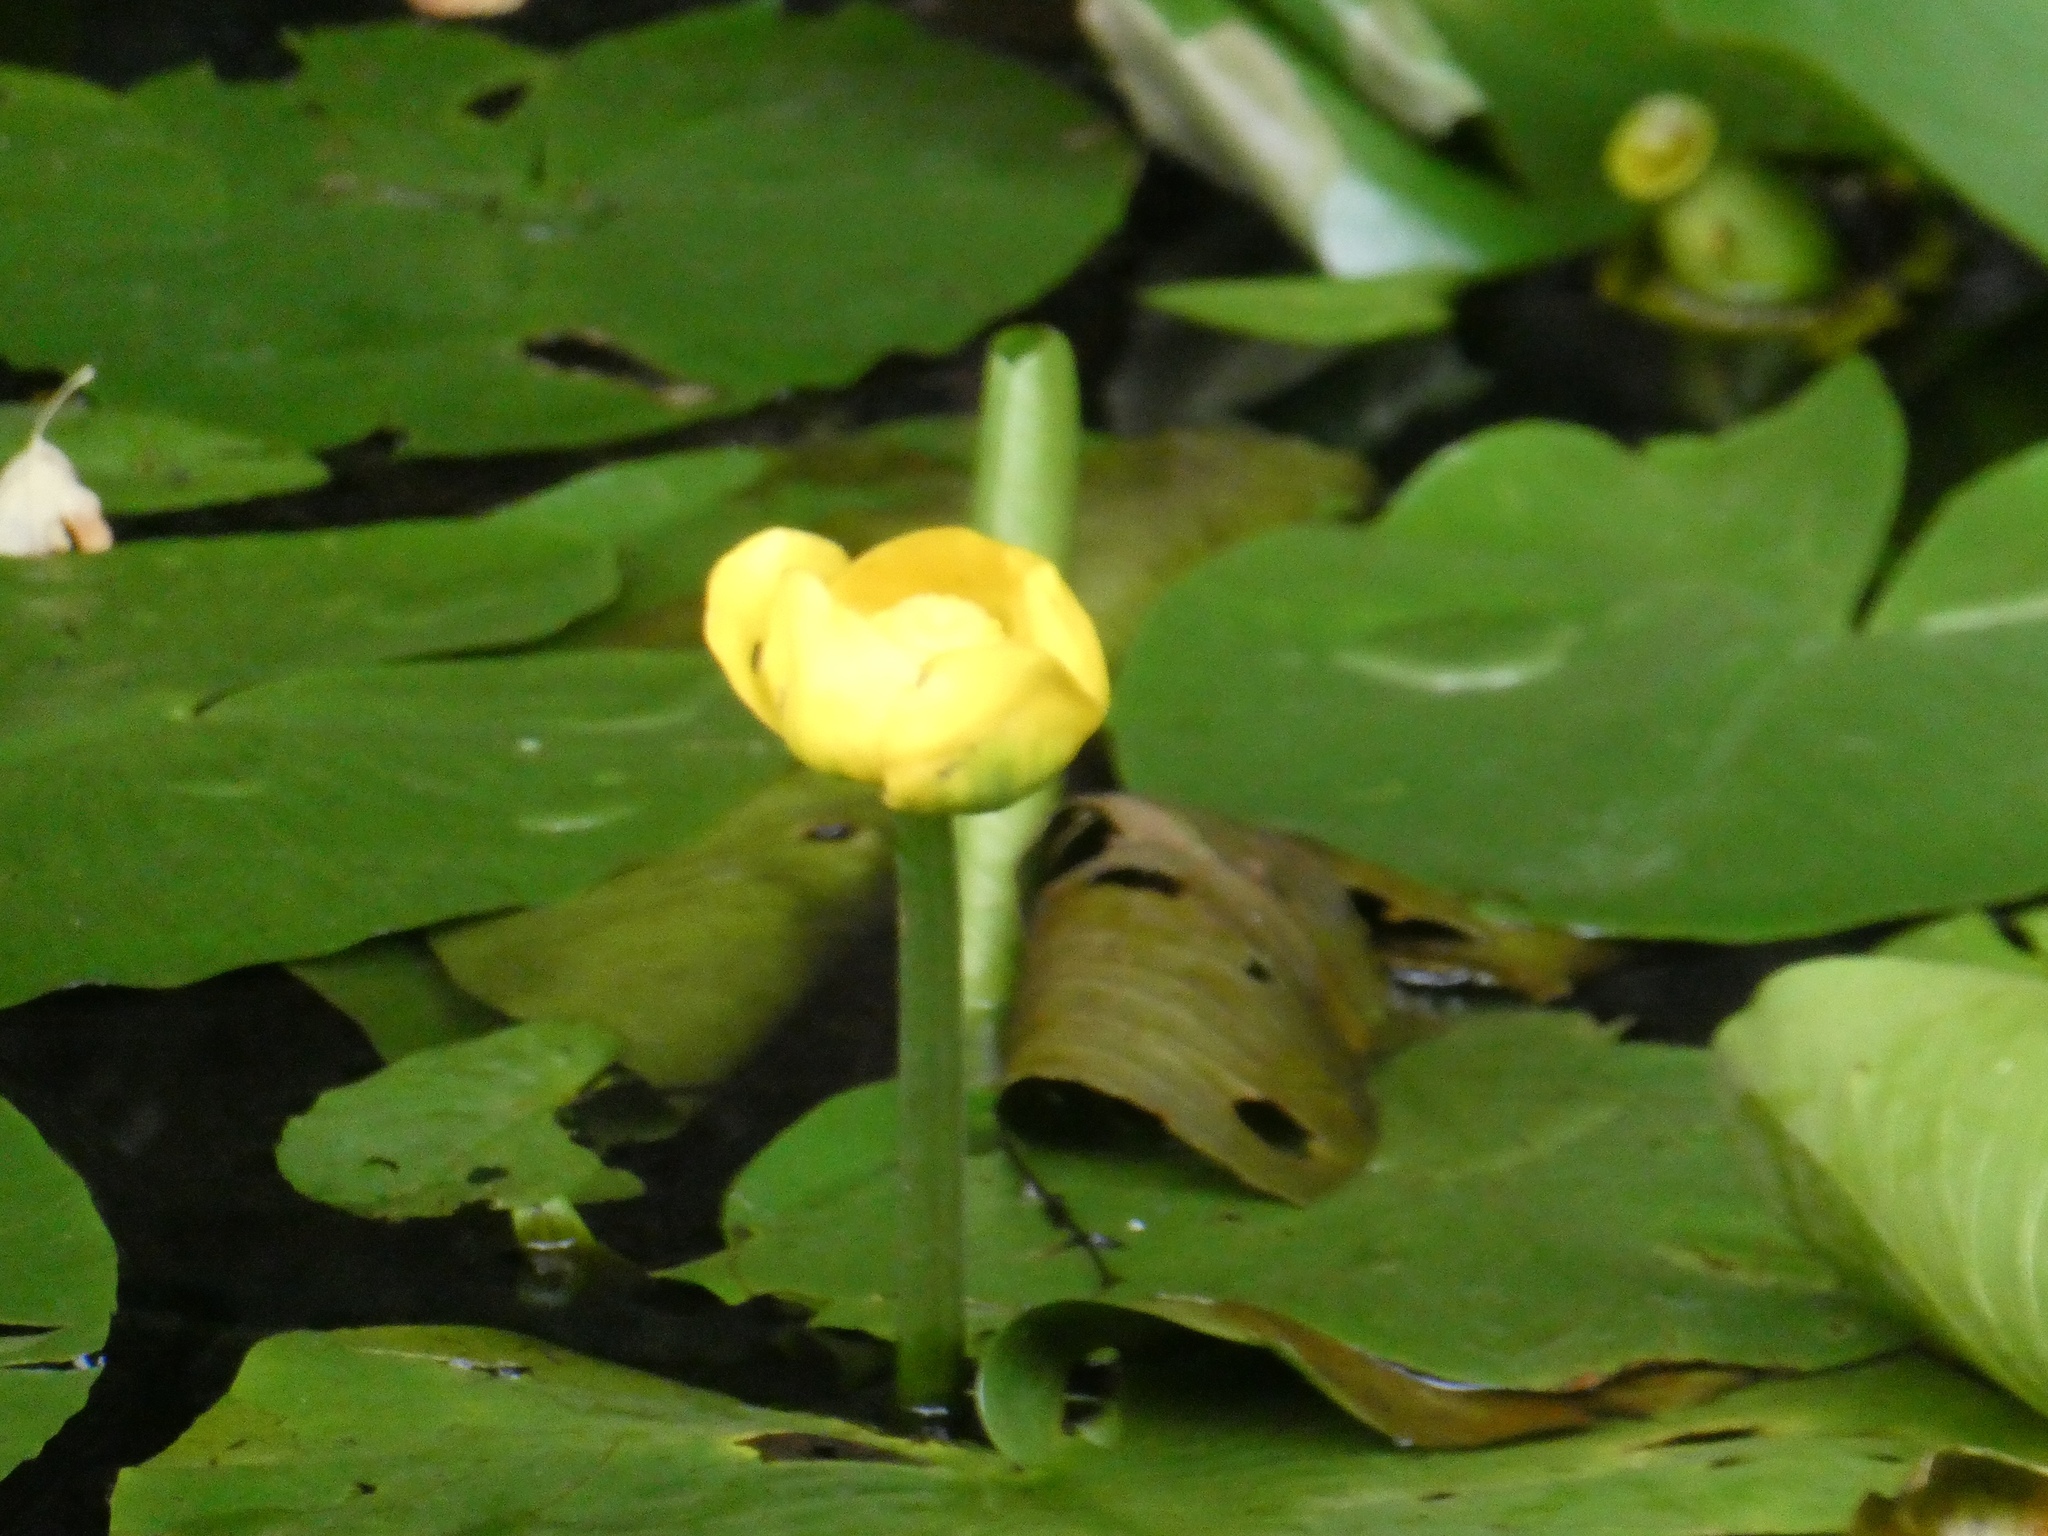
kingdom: Plantae
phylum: Tracheophyta
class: Magnoliopsida
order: Nymphaeales
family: Nymphaeaceae
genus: Nuphar
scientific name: Nuphar lutea
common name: Yellow water-lily
